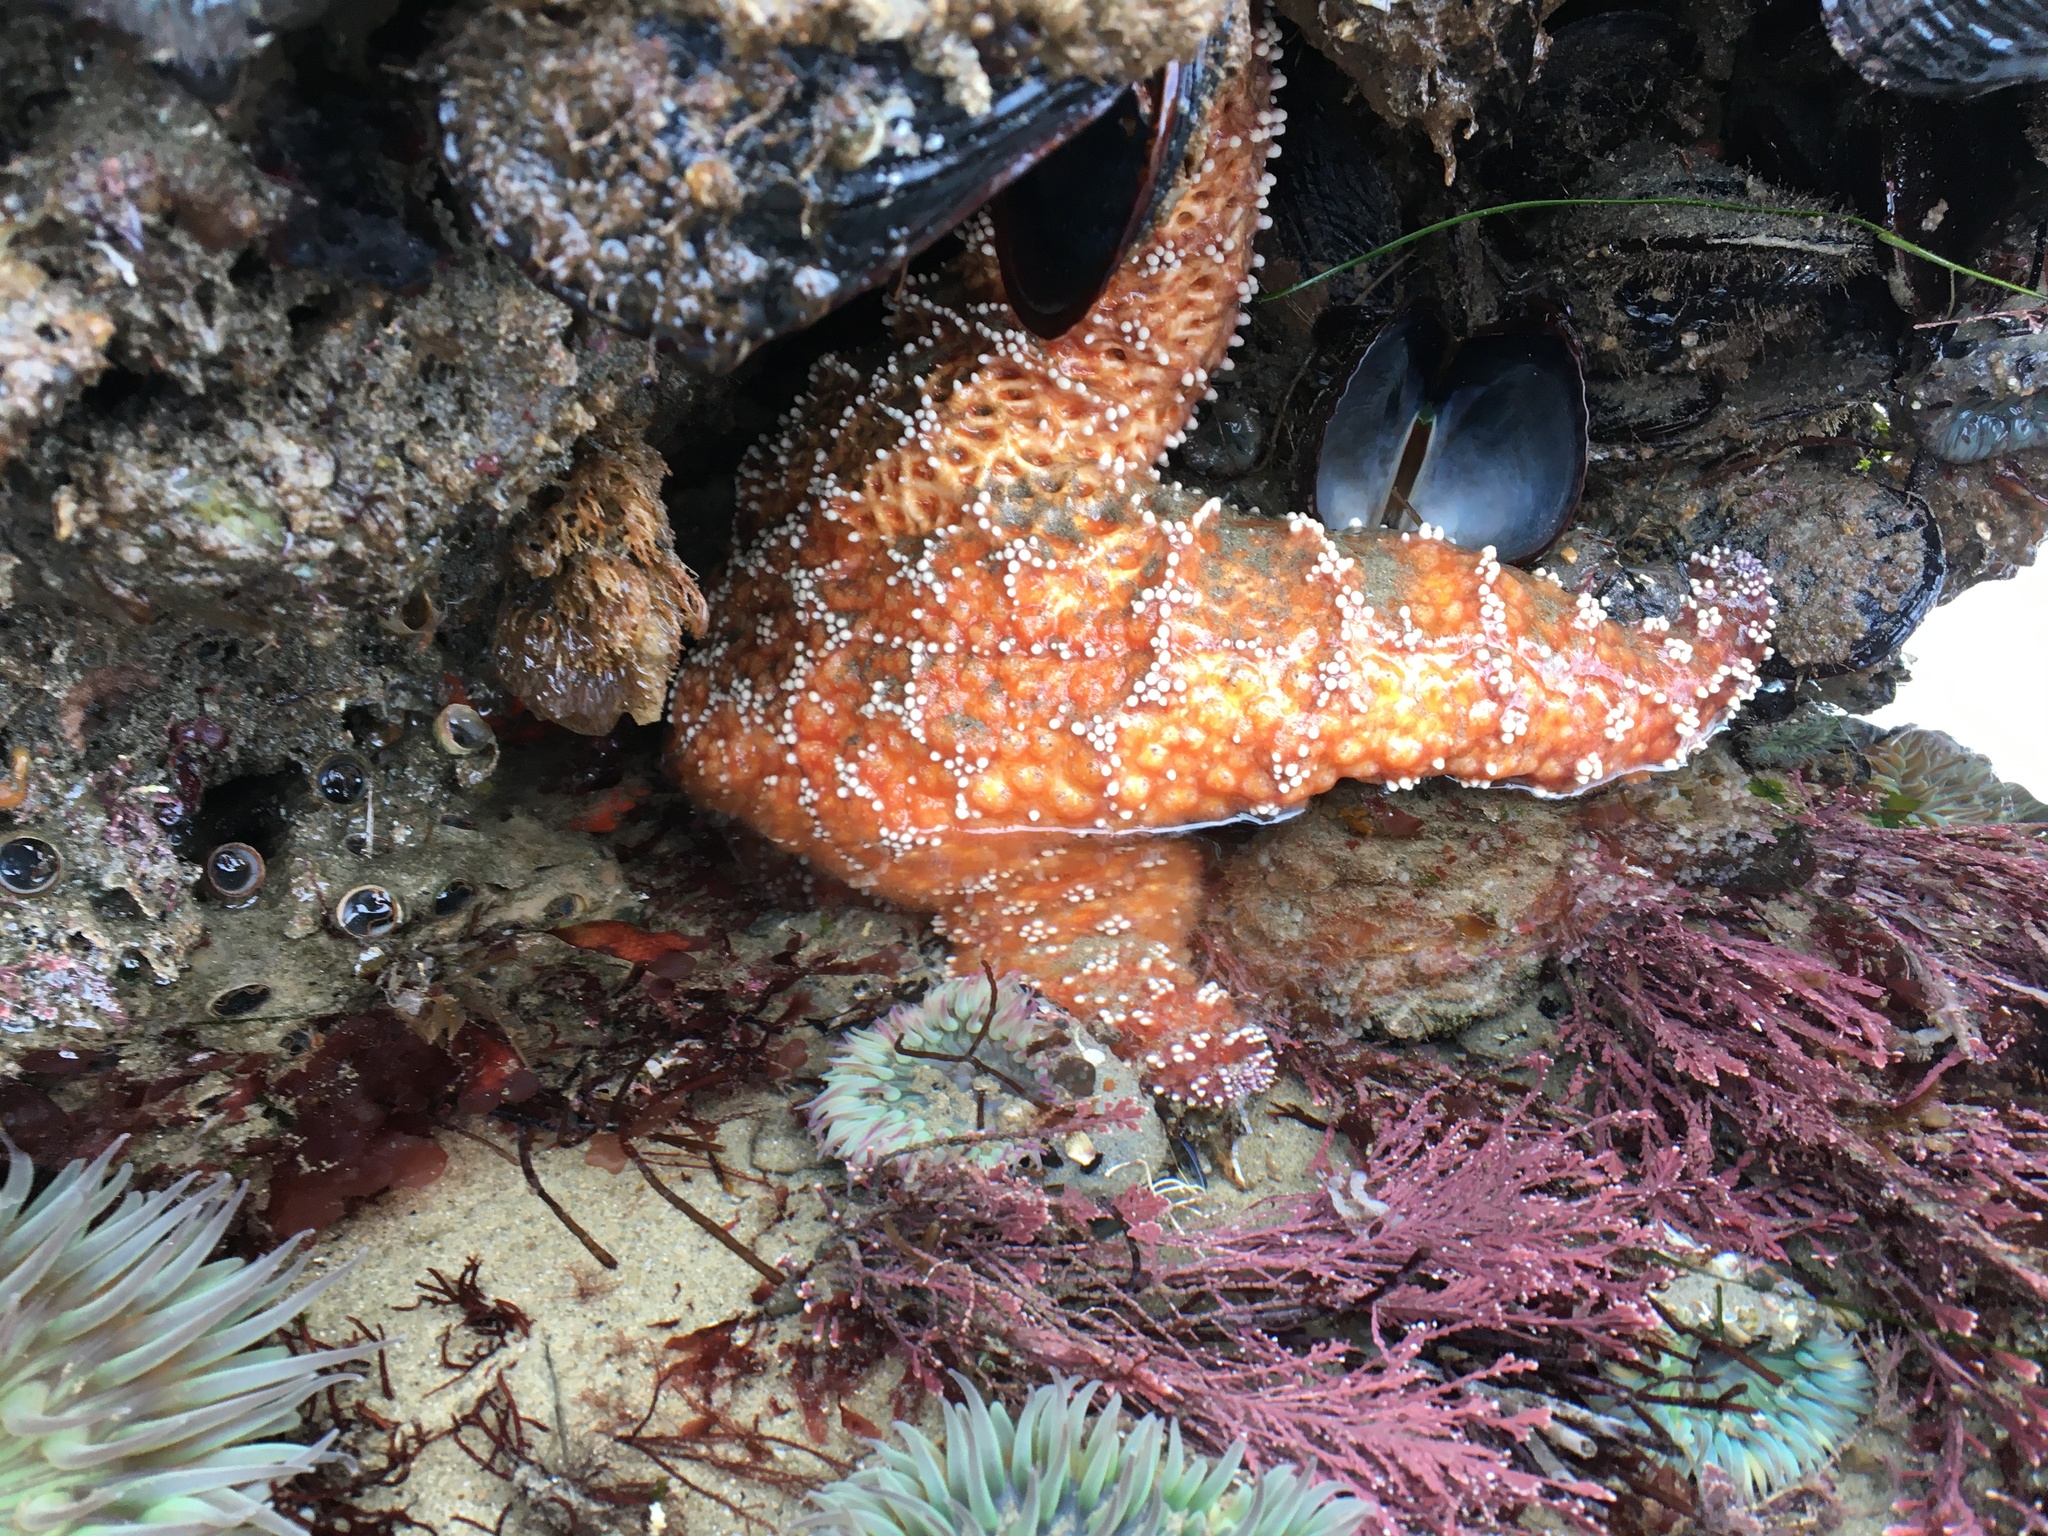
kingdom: Animalia
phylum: Echinodermata
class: Asteroidea
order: Forcipulatida
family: Asteriidae
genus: Pisaster
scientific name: Pisaster ochraceus
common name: Ochre stars
